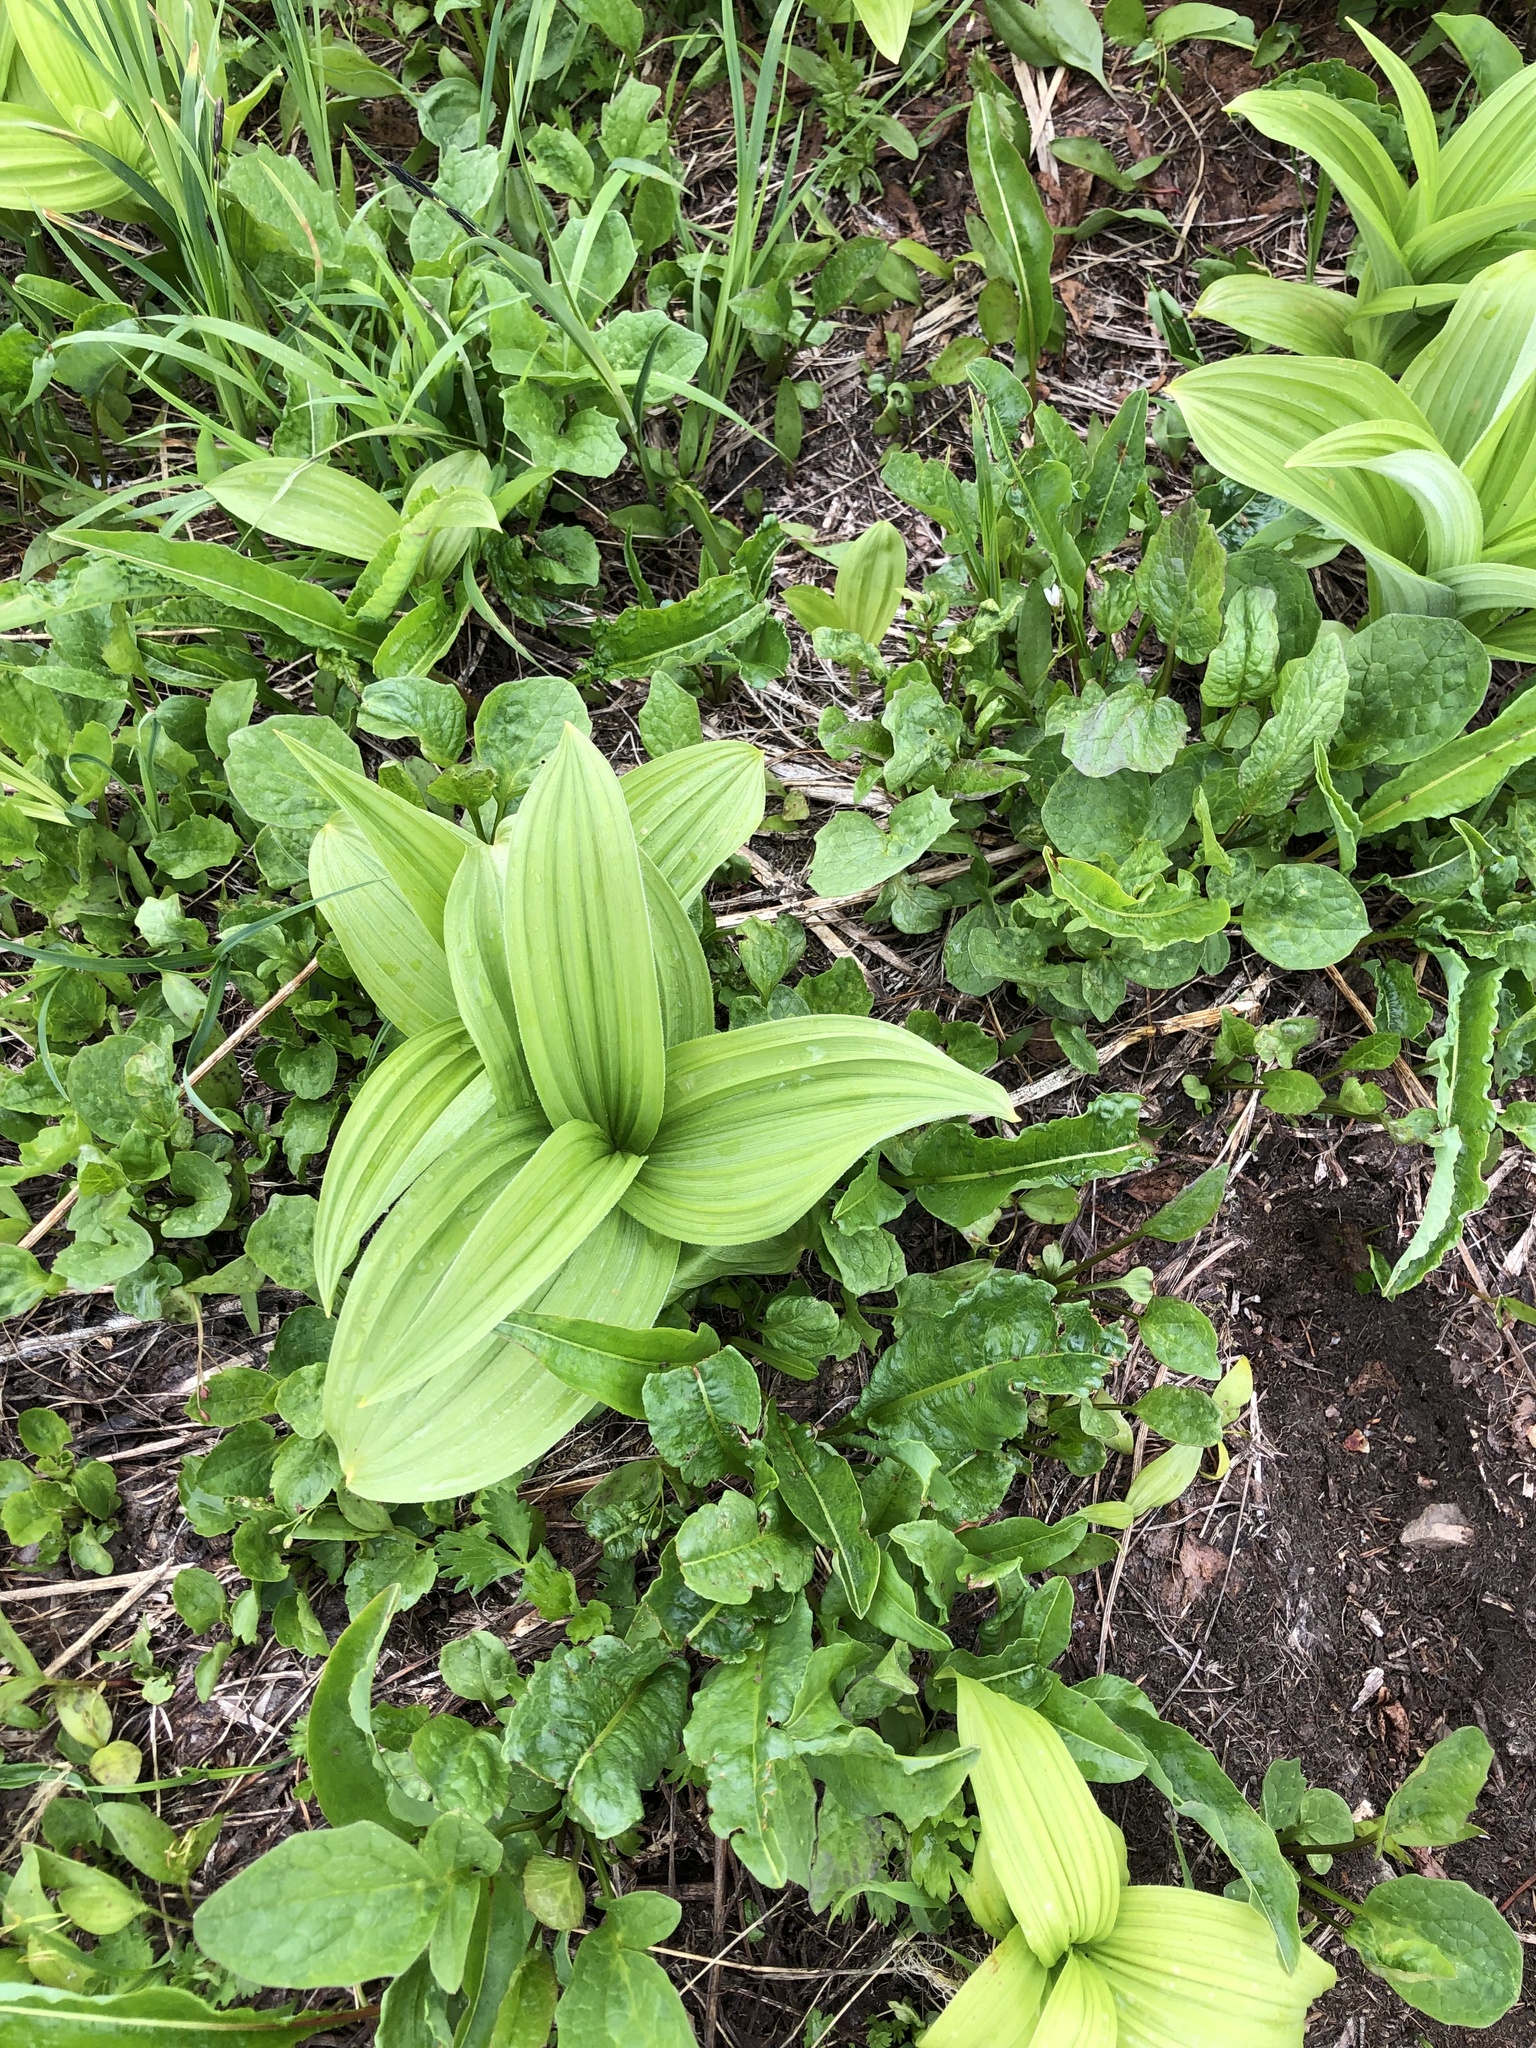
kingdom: Plantae
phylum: Tracheophyta
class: Liliopsida
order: Liliales
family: Melanthiaceae
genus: Veratrum
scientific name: Veratrum viride
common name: American false hellebore
